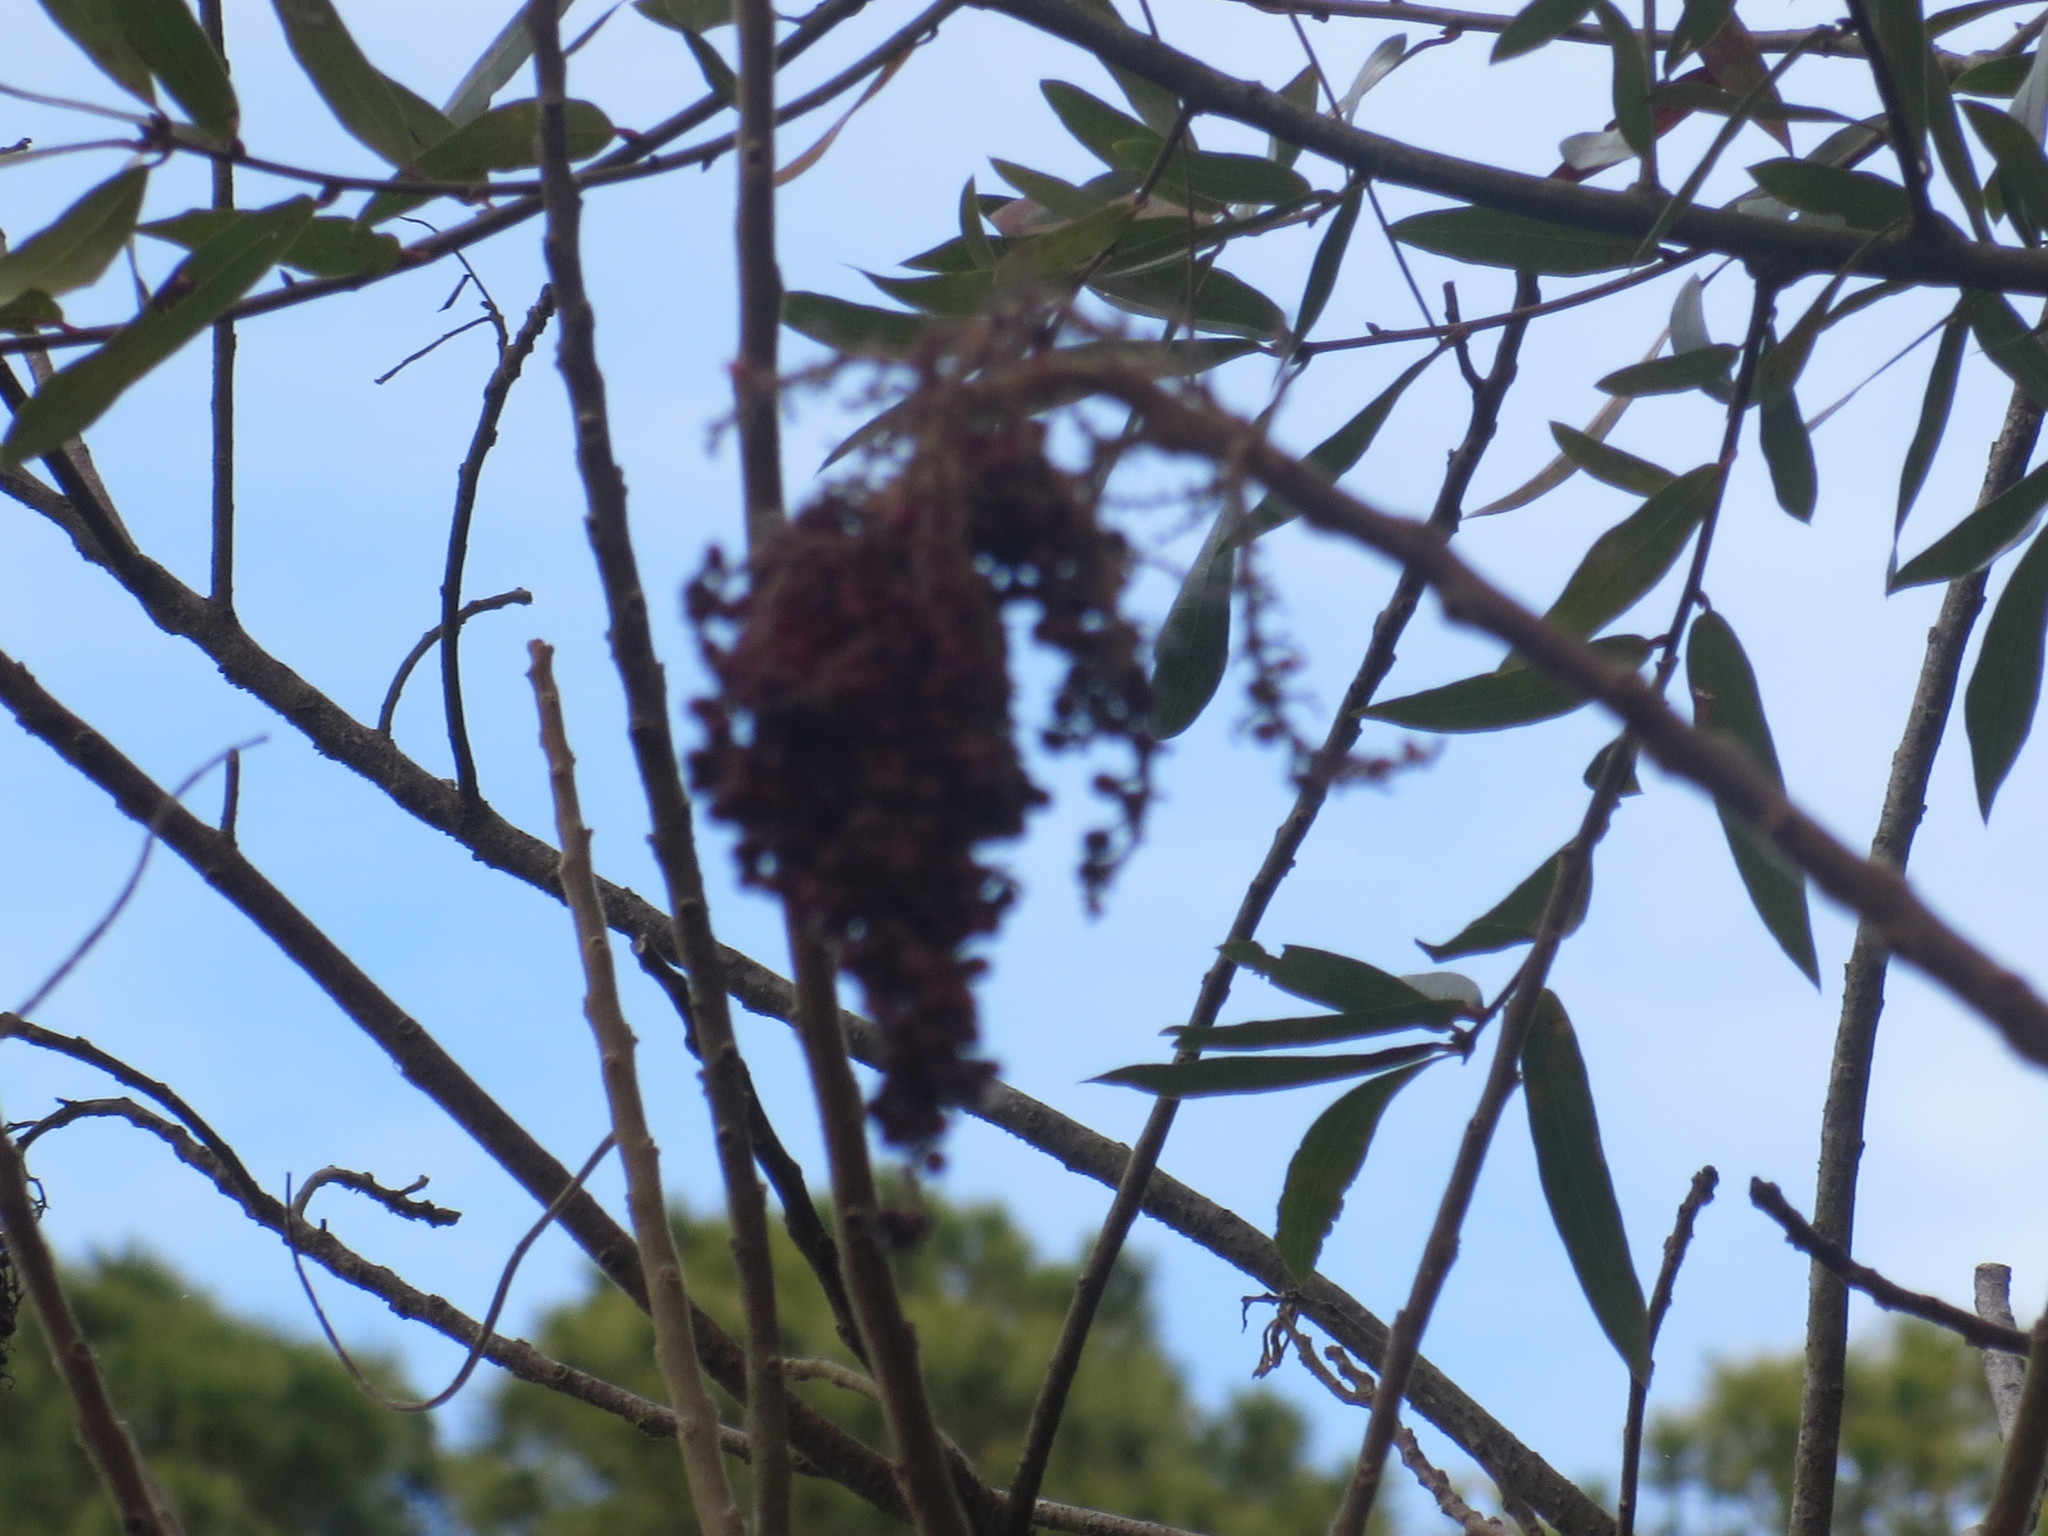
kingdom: Plantae
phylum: Tracheophyta
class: Magnoliopsida
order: Sapindales
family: Anacardiaceae
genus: Rhus
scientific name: Rhus copallina
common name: Shining sumac
